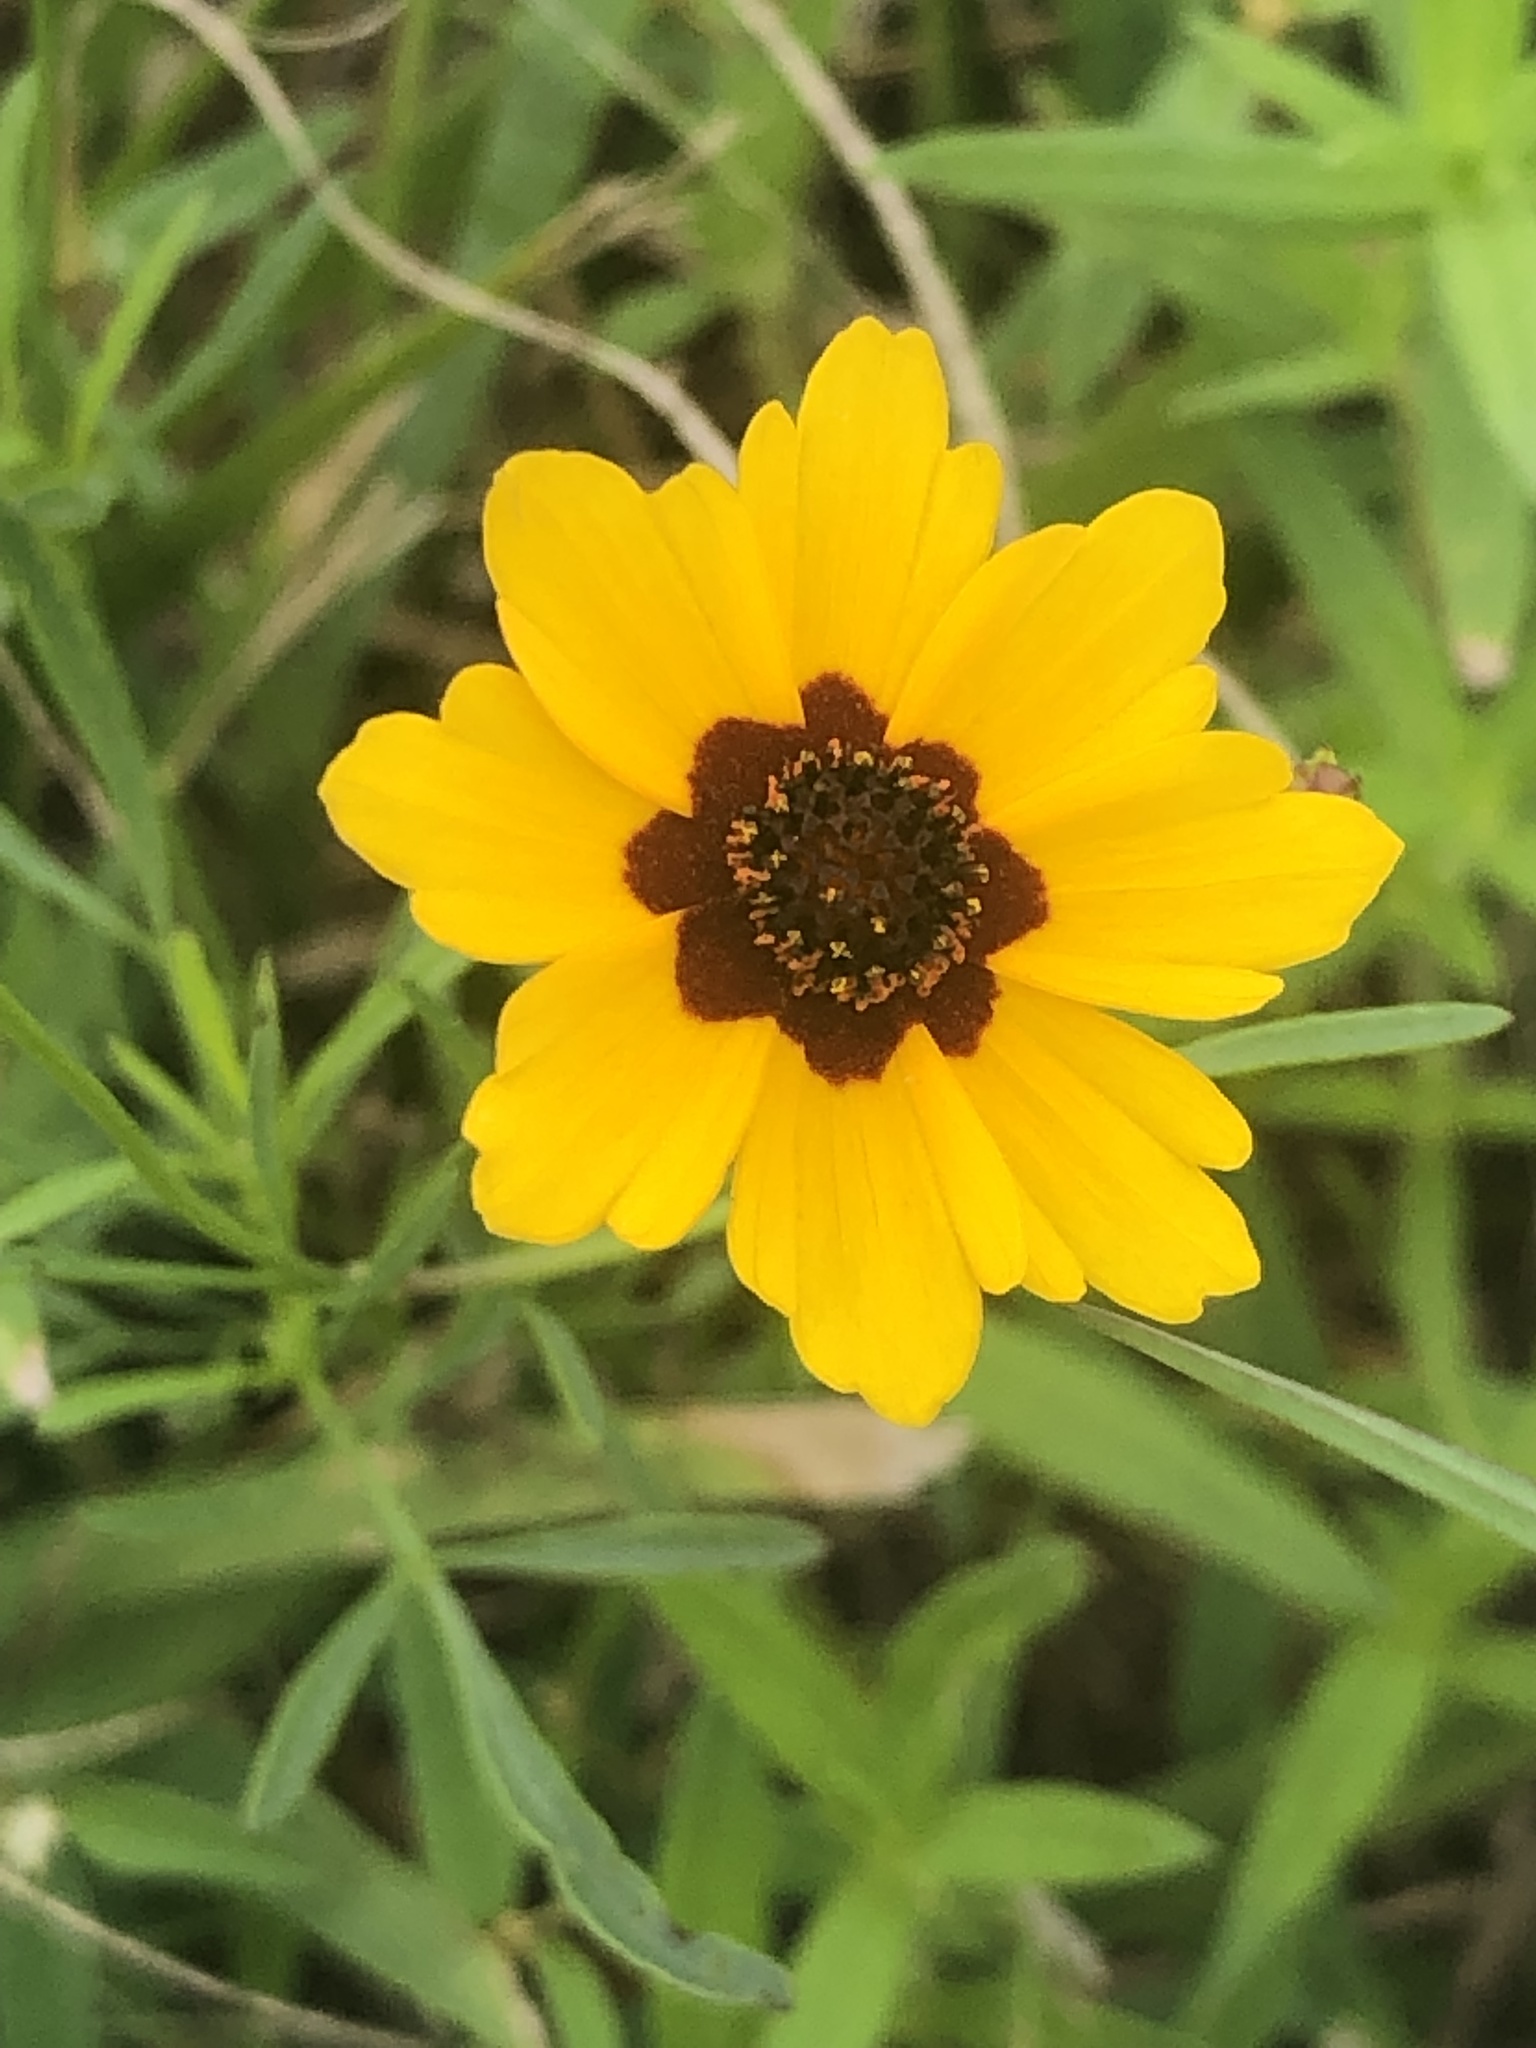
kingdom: Plantae
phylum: Tracheophyta
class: Magnoliopsida
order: Asterales
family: Asteraceae
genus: Coreopsis
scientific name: Coreopsis tinctoria
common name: Garden tickseed
